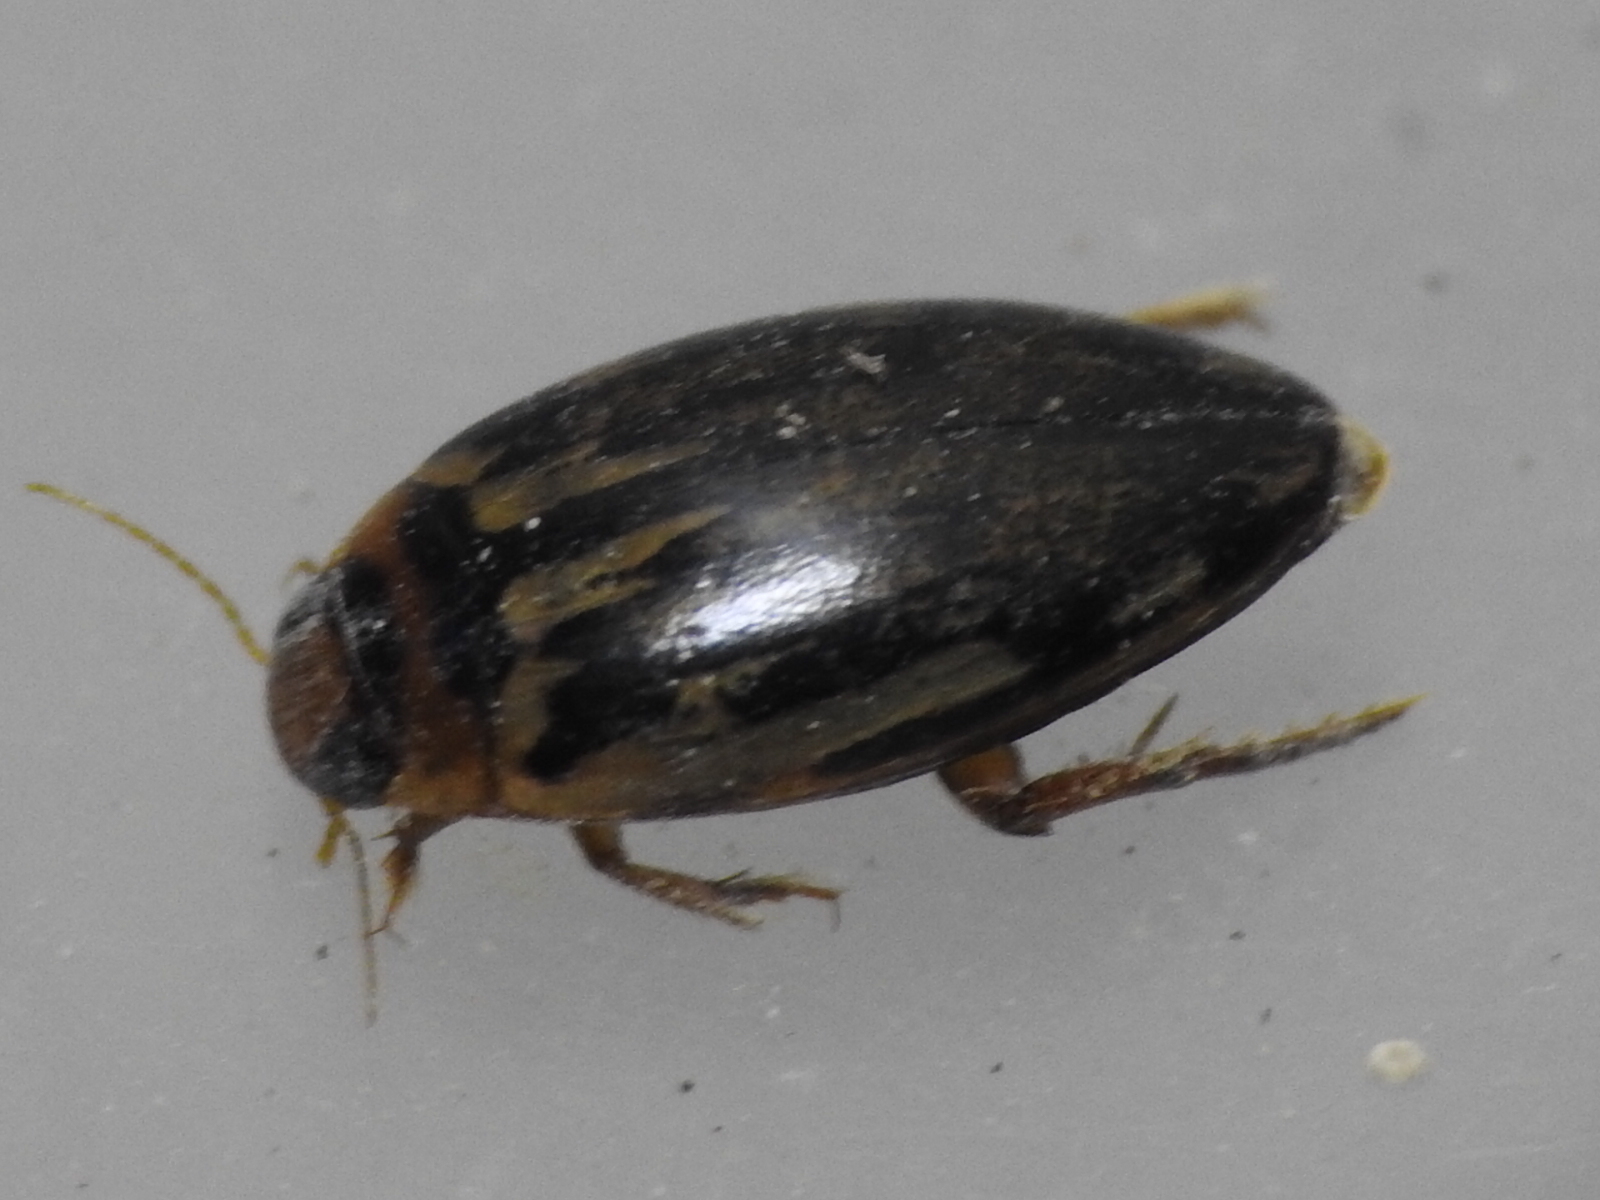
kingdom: Animalia
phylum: Arthropoda
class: Insecta
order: Coleoptera
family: Dytiscidae
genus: Coptotomus
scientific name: Coptotomus
